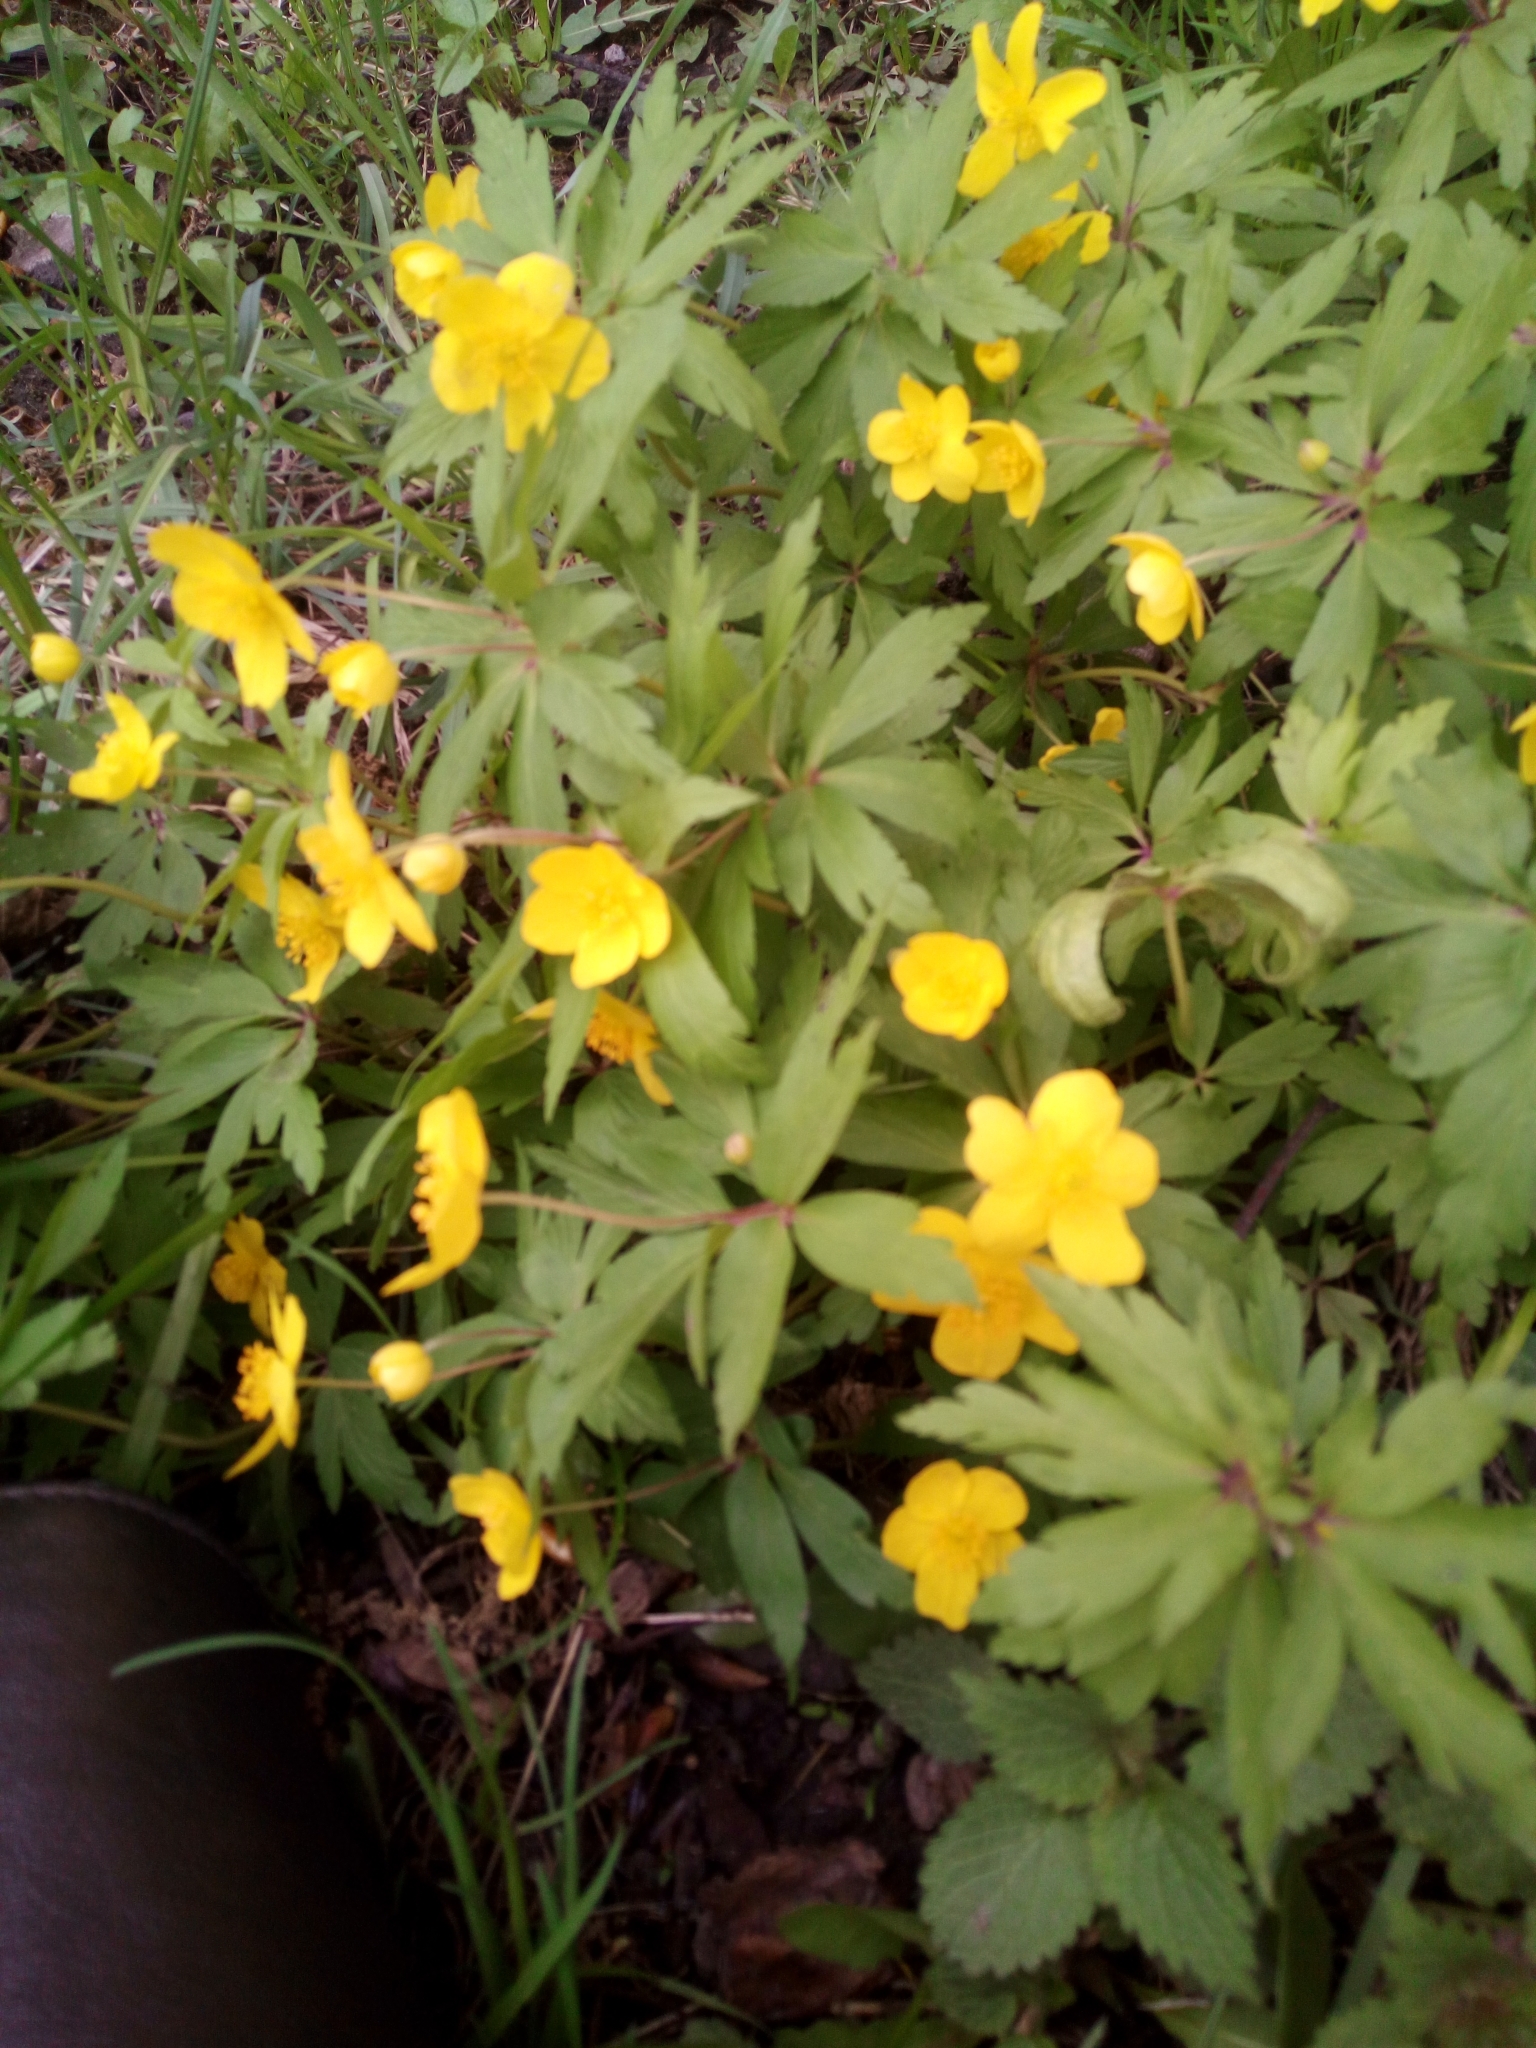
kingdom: Plantae
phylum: Tracheophyta
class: Magnoliopsida
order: Ranunculales
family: Ranunculaceae
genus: Anemone
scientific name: Anemone ranunculoides
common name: Yellow anemone
